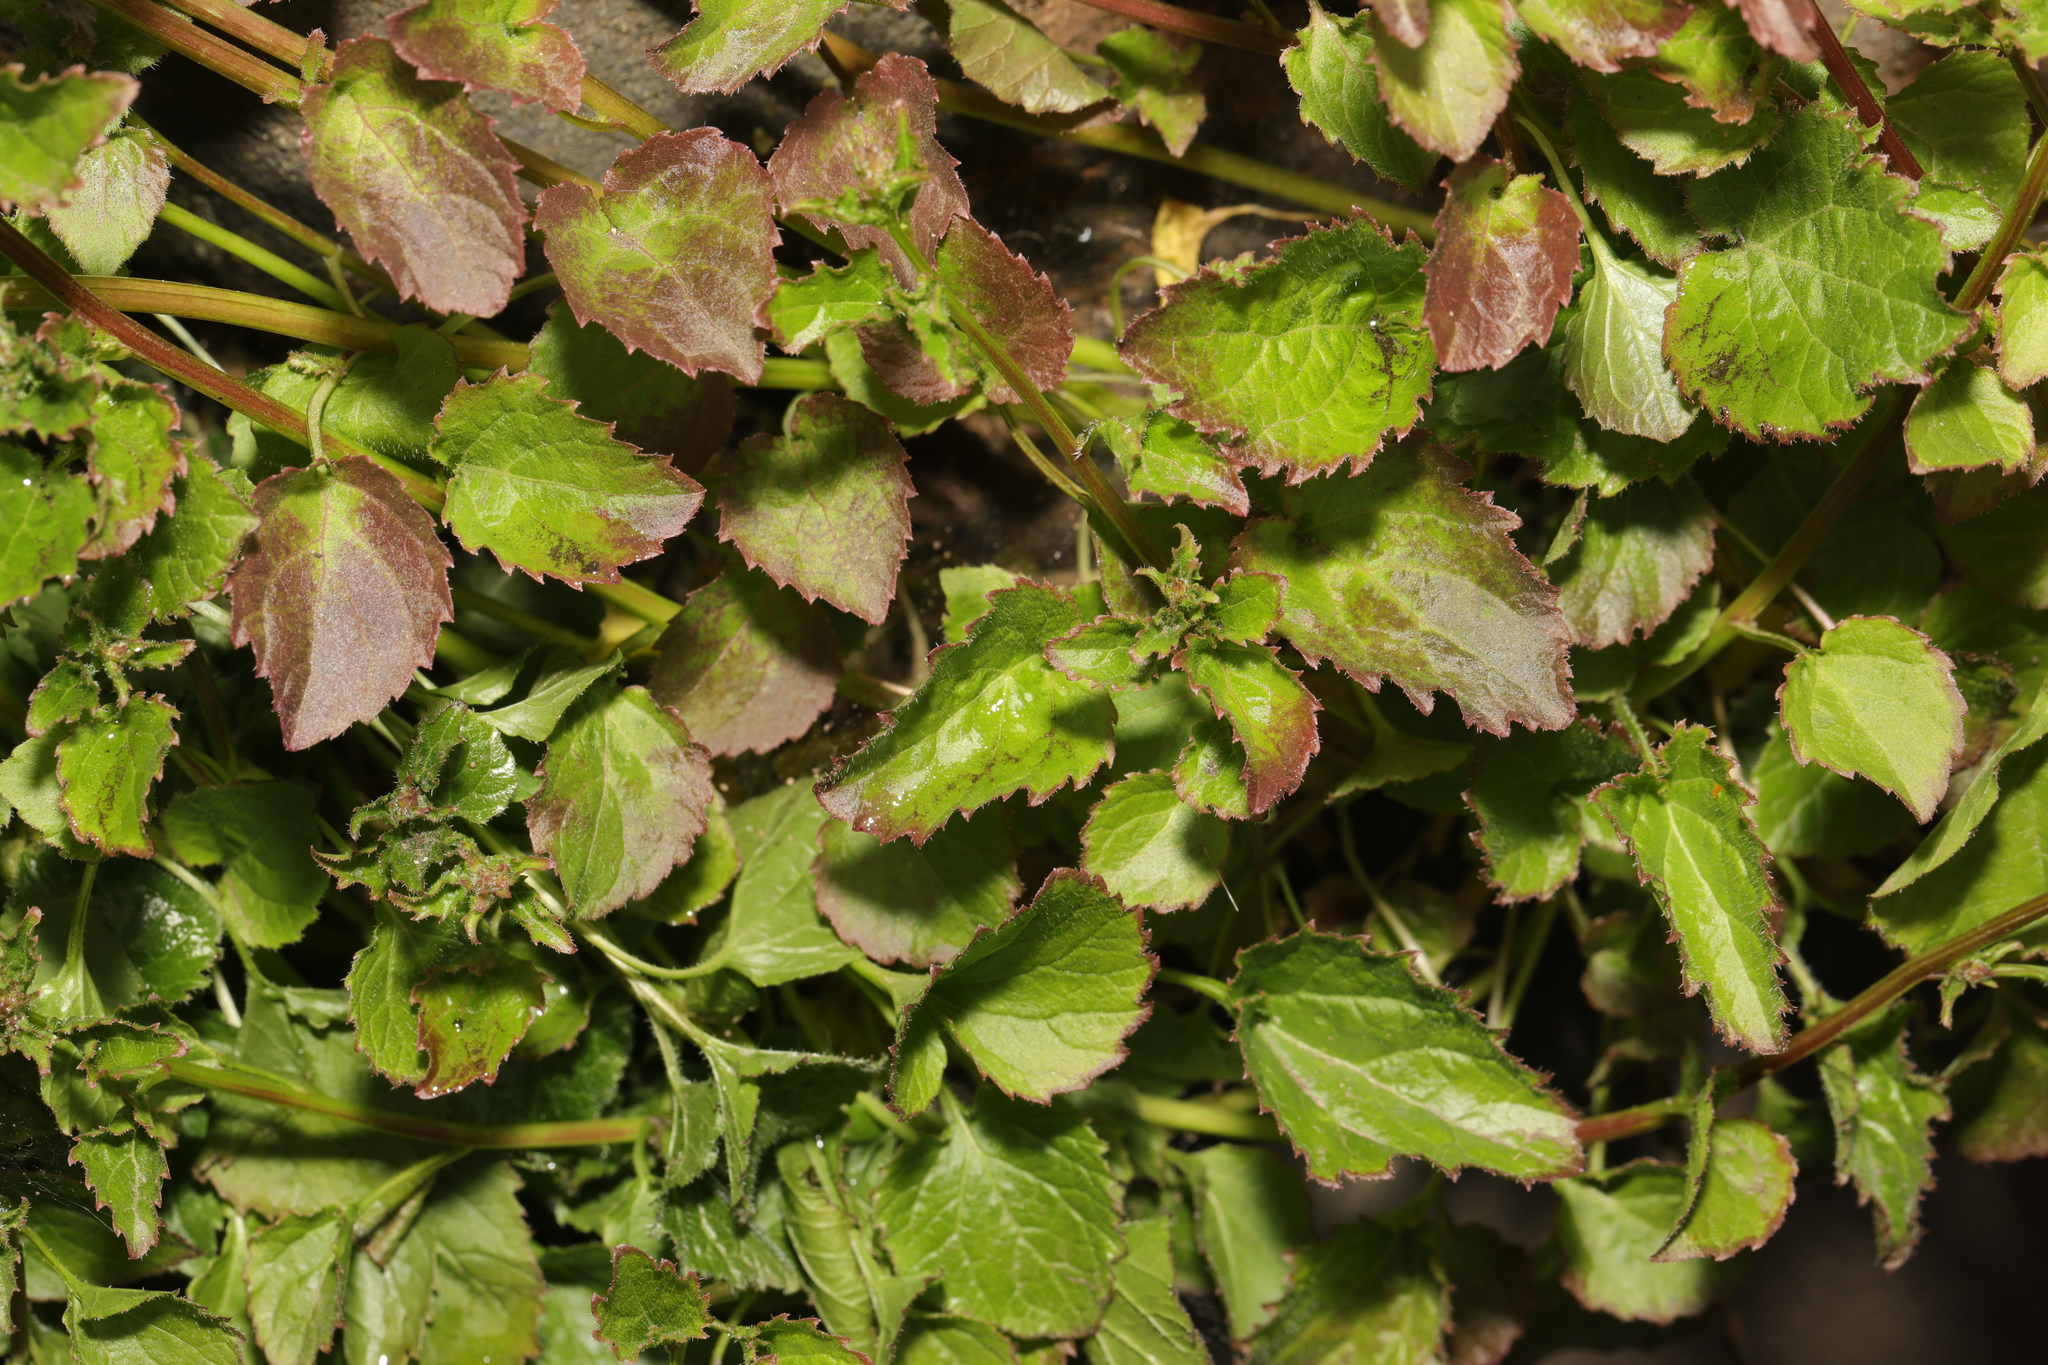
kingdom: Plantae
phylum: Tracheophyta
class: Magnoliopsida
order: Asterales
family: Campanulaceae
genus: Campanula
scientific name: Campanula poscharskyana
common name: Trailing bellflower
